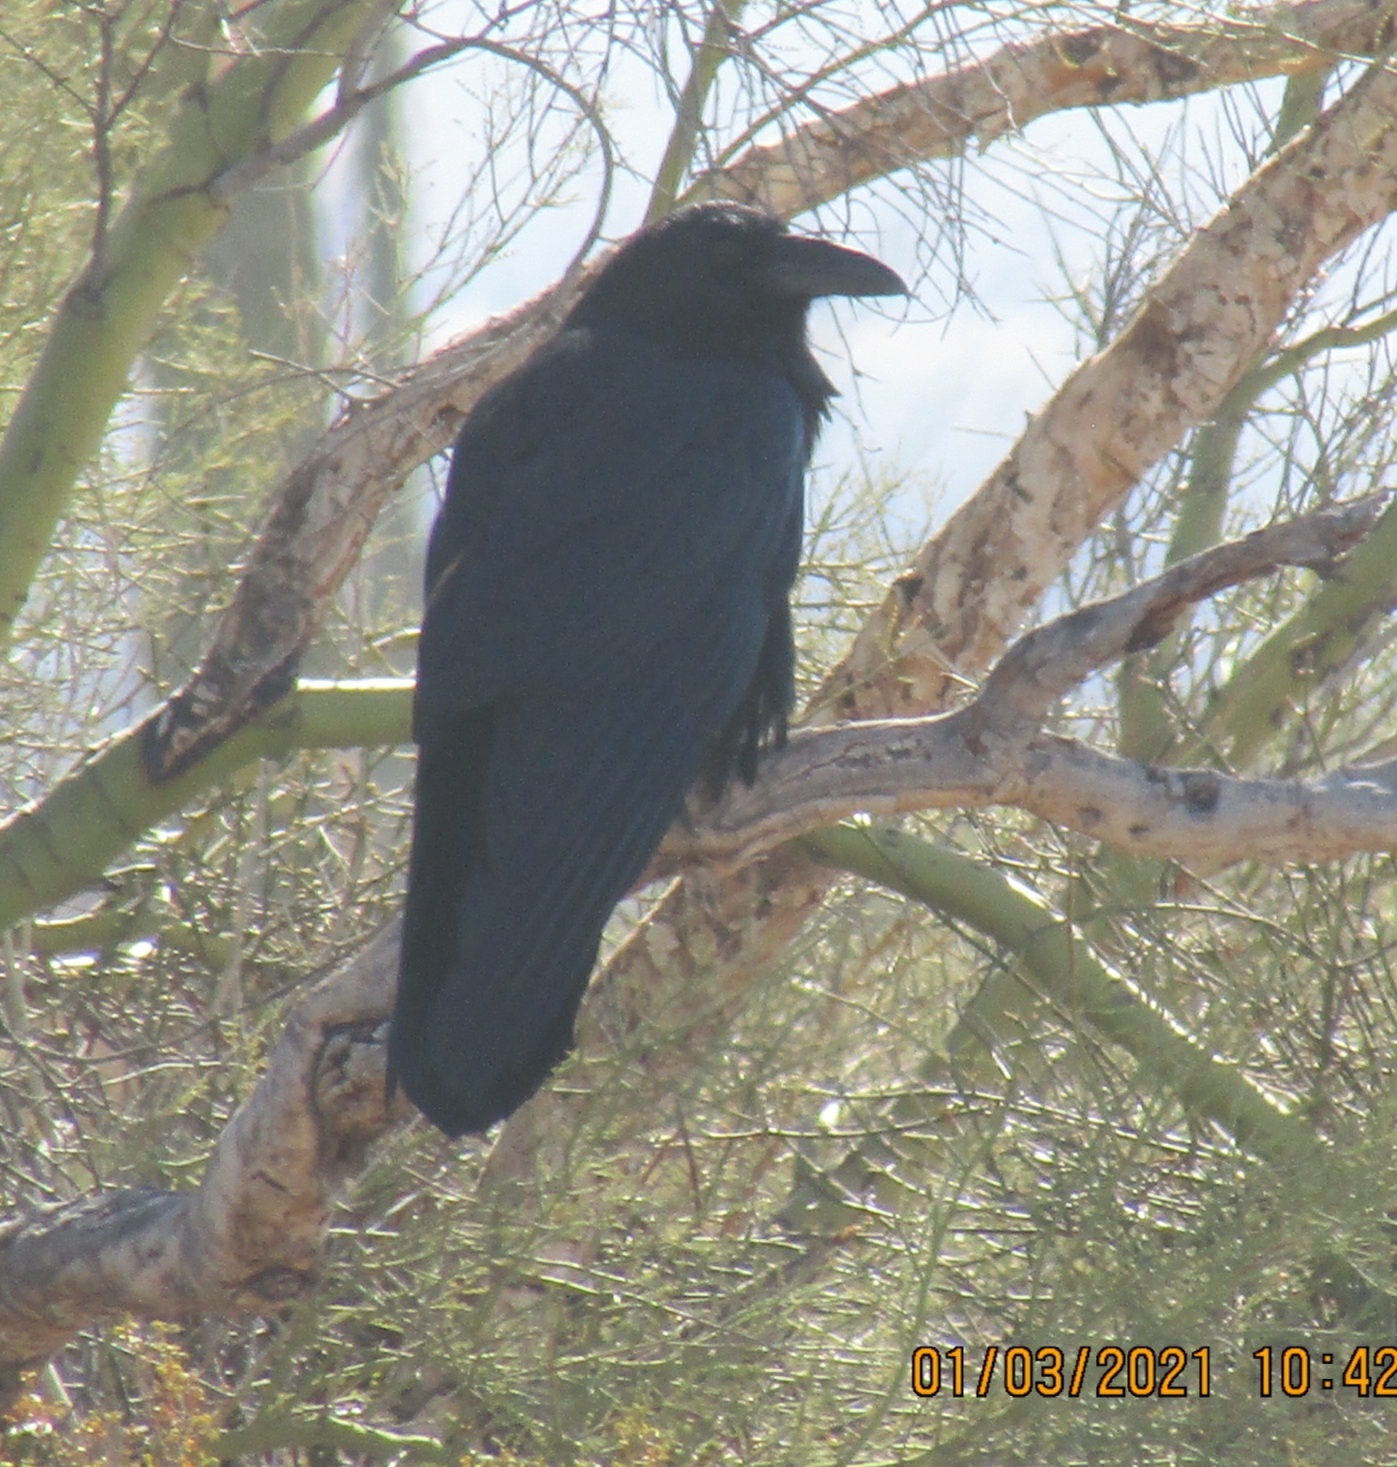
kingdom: Animalia
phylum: Chordata
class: Aves
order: Passeriformes
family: Corvidae
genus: Corvus
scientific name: Corvus corax
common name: Common raven
